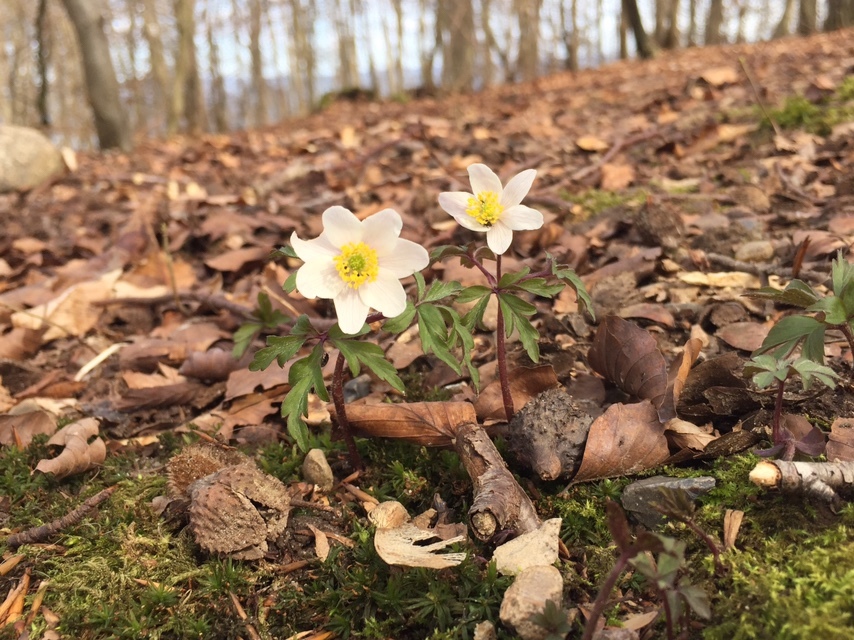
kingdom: Plantae
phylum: Tracheophyta
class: Magnoliopsida
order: Ranunculales
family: Ranunculaceae
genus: Anemone
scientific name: Anemone nemorosa
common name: Wood anemone
